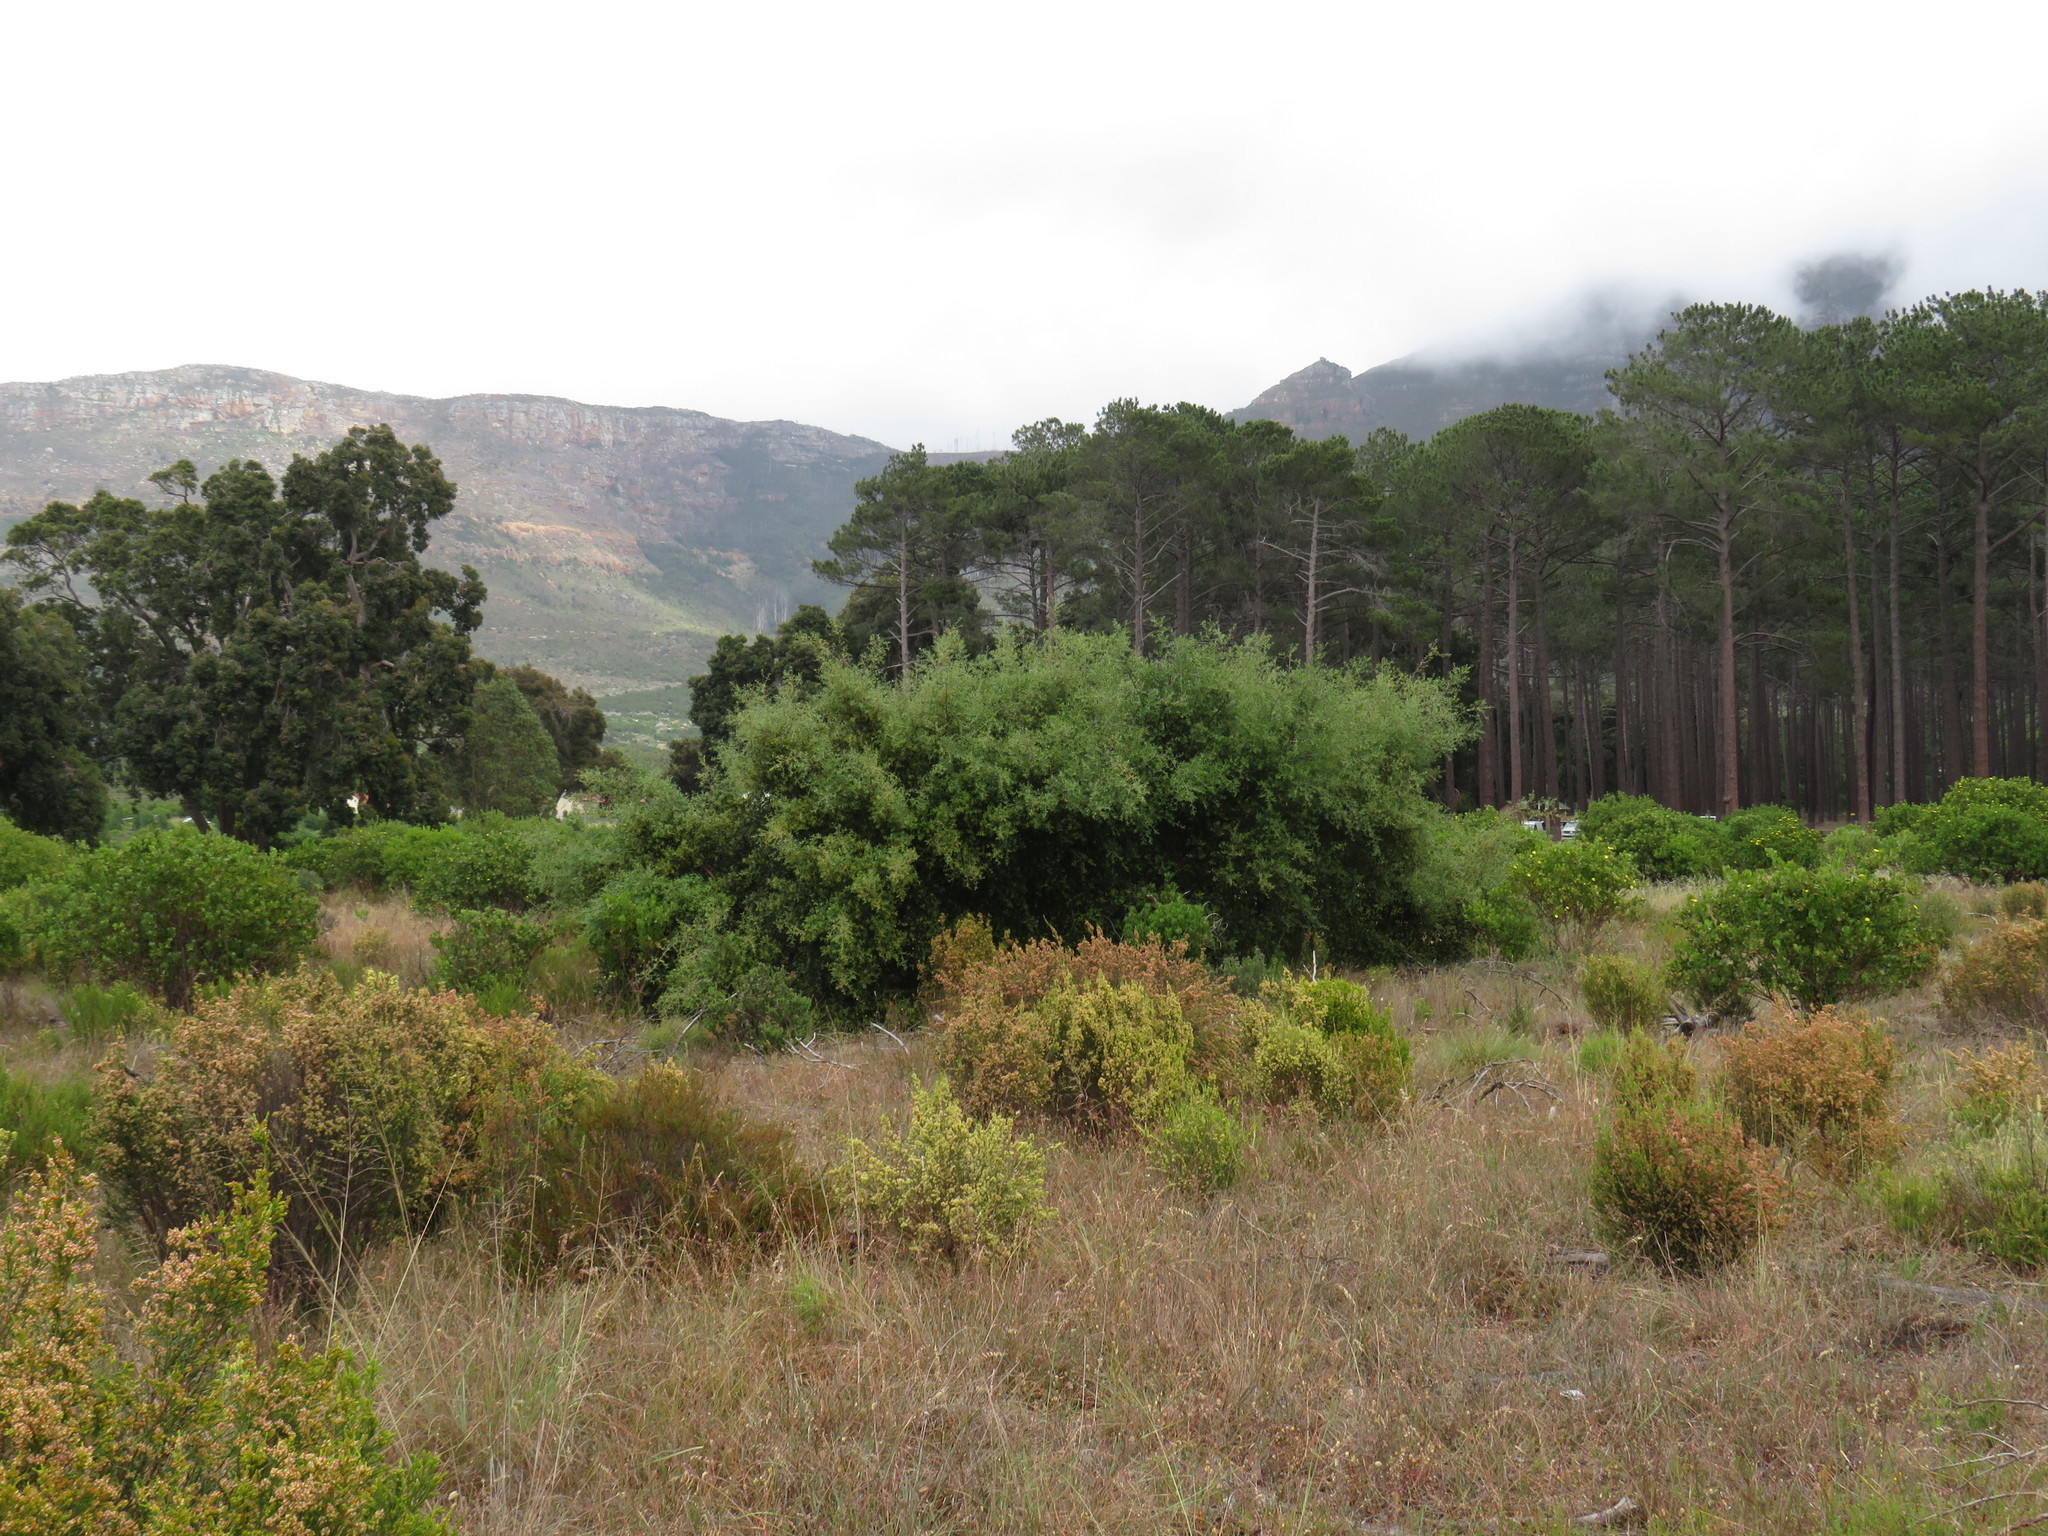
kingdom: Plantae
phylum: Tracheophyta
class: Magnoliopsida
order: Fagales
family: Fagaceae
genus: Quercus
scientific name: Quercus suber
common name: Cork oak
